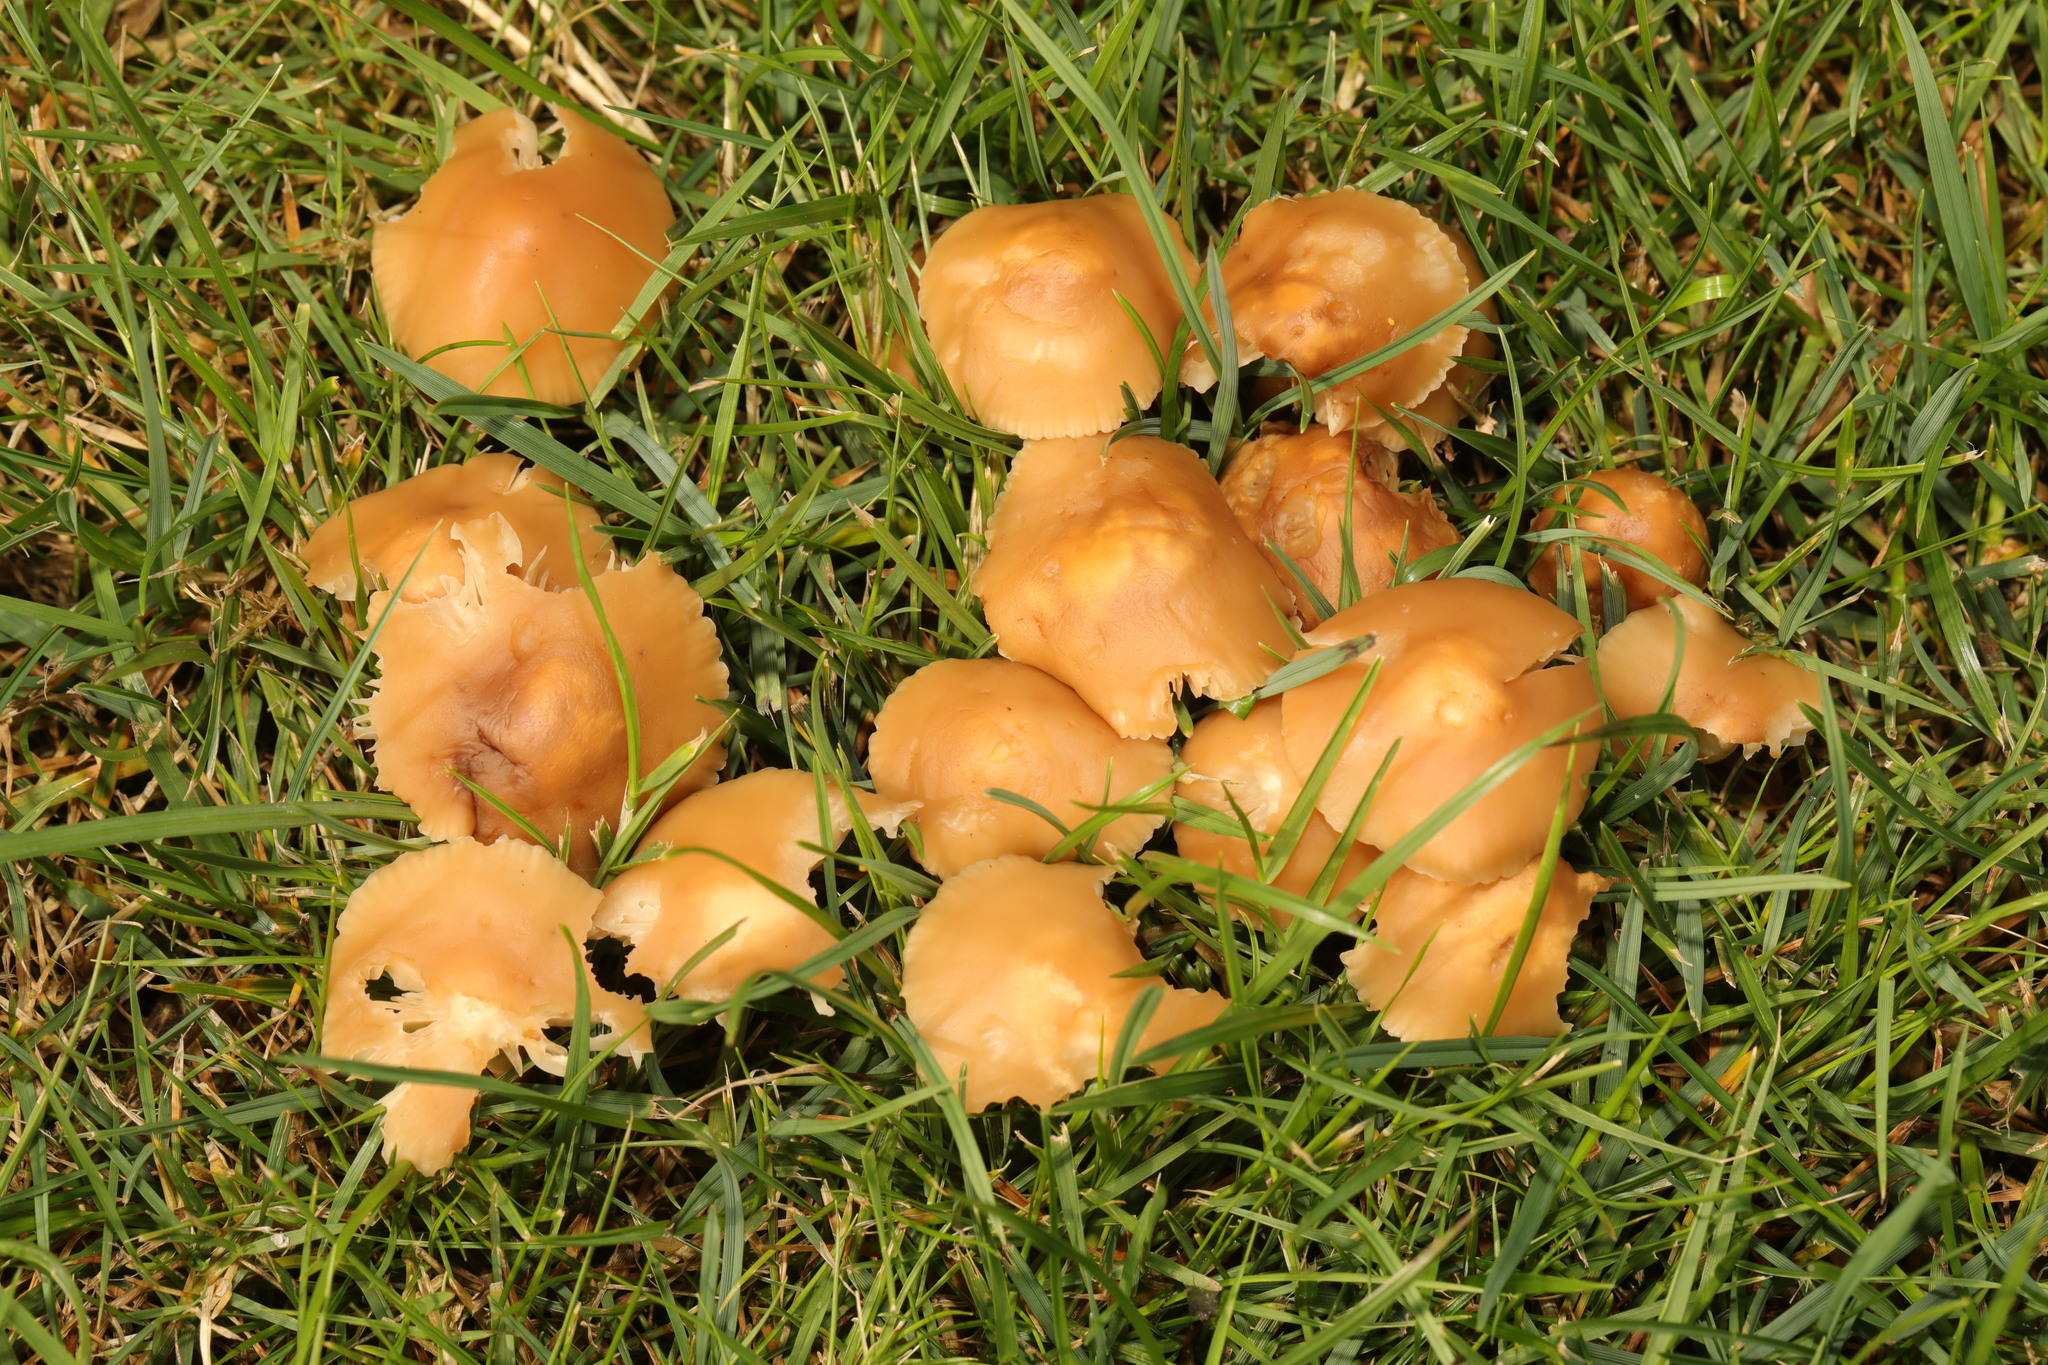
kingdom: Fungi
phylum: Basidiomycota
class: Agaricomycetes
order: Agaricales
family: Marasmiaceae
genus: Marasmius
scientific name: Marasmius oreades
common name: Fairy ring champignon
